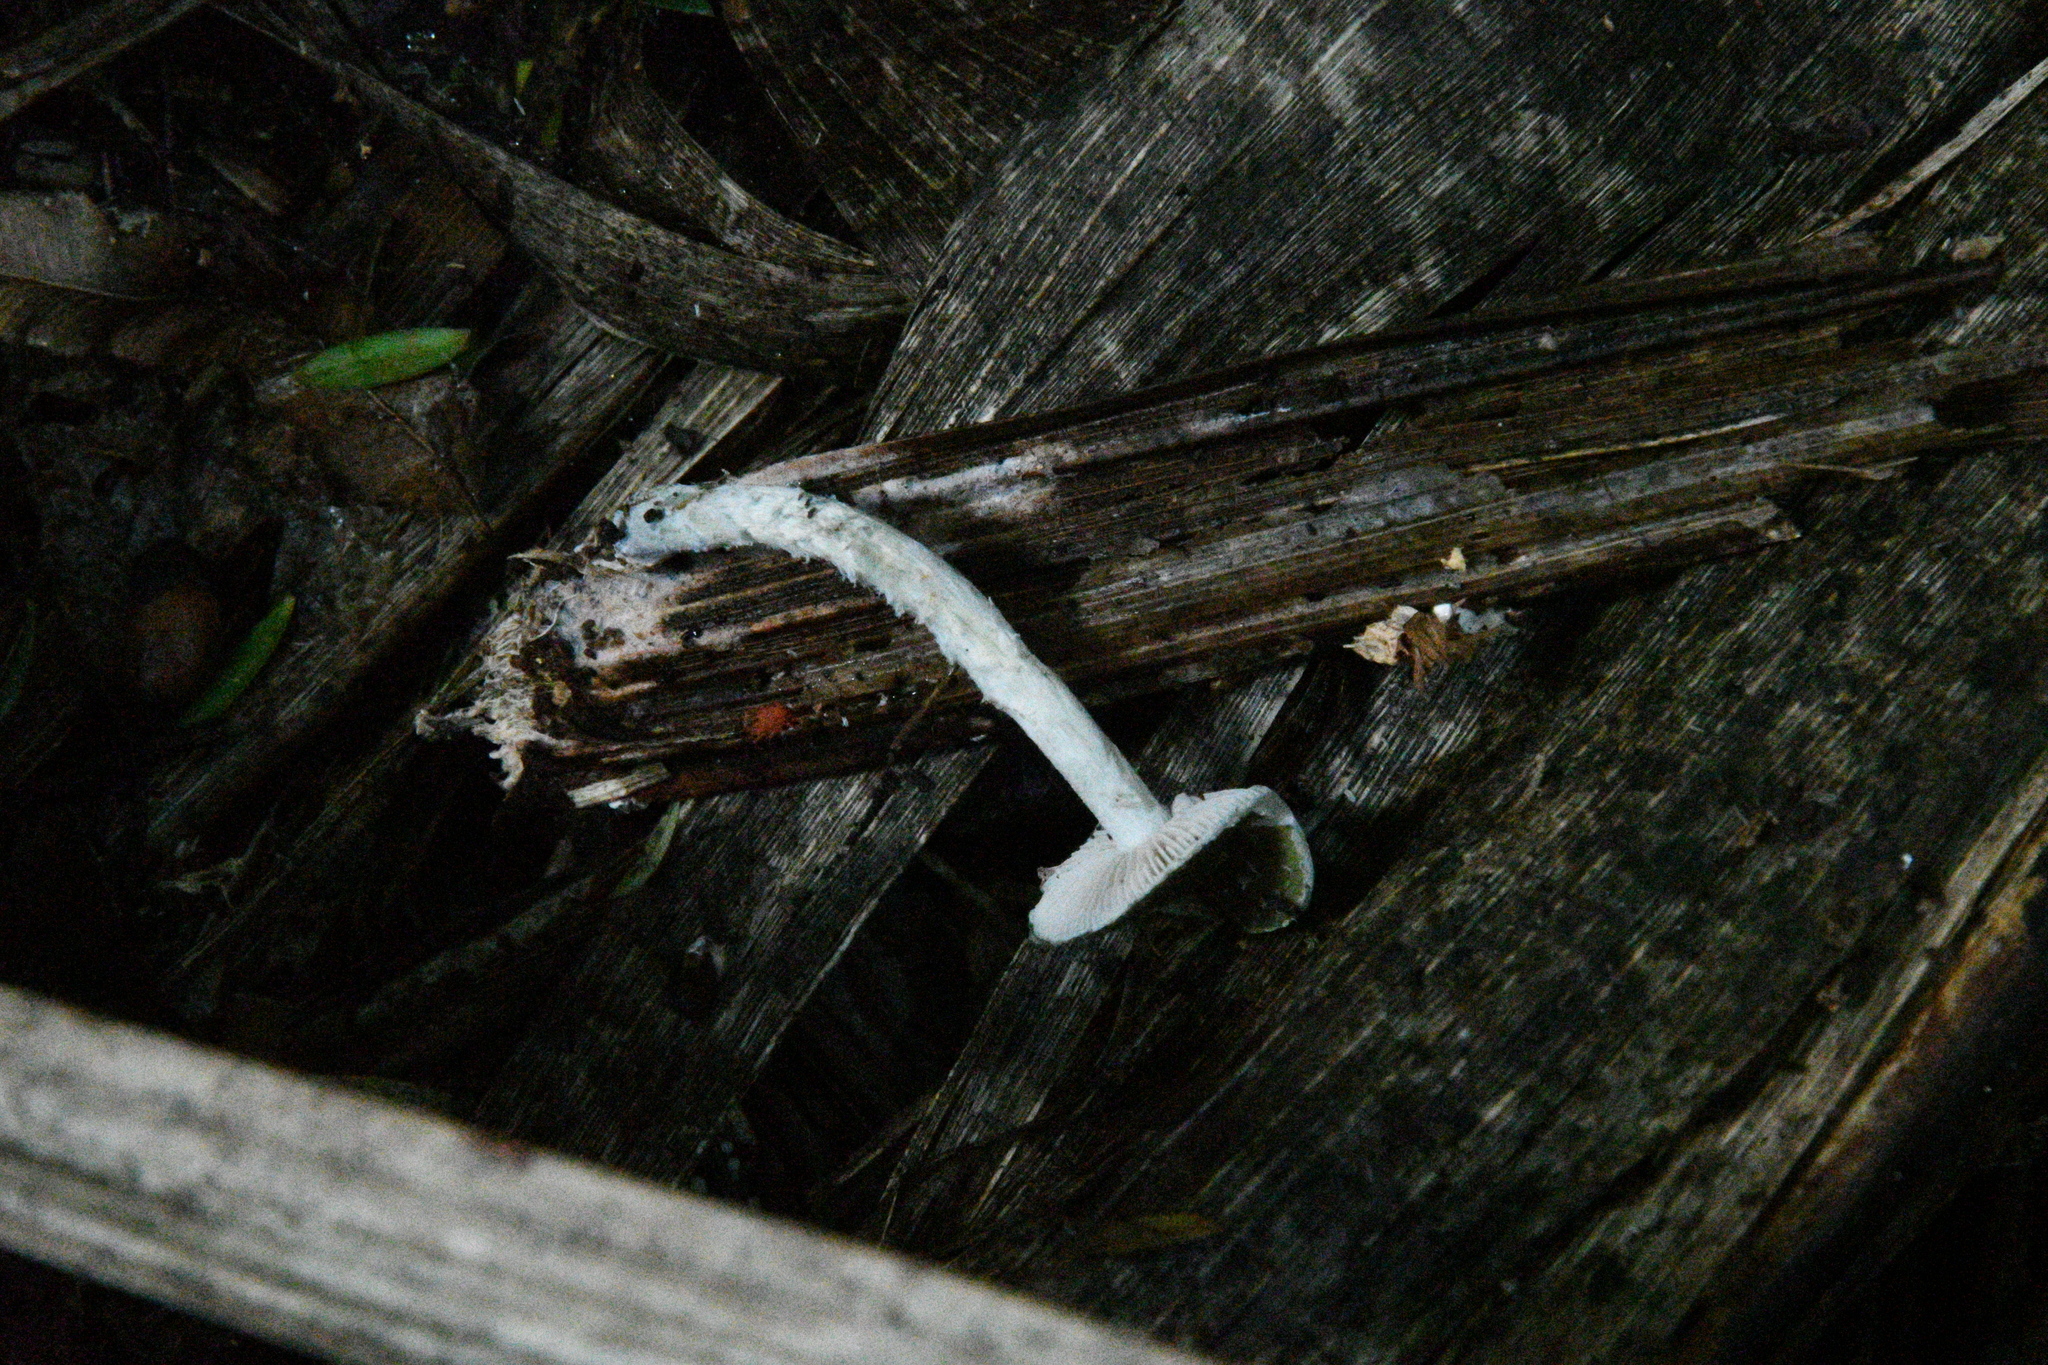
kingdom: Fungi
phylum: Basidiomycota
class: Agaricomycetes
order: Agaricales
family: Strophariaceae
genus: Stropharia
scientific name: Stropharia caerulea
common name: Blue roundhead
